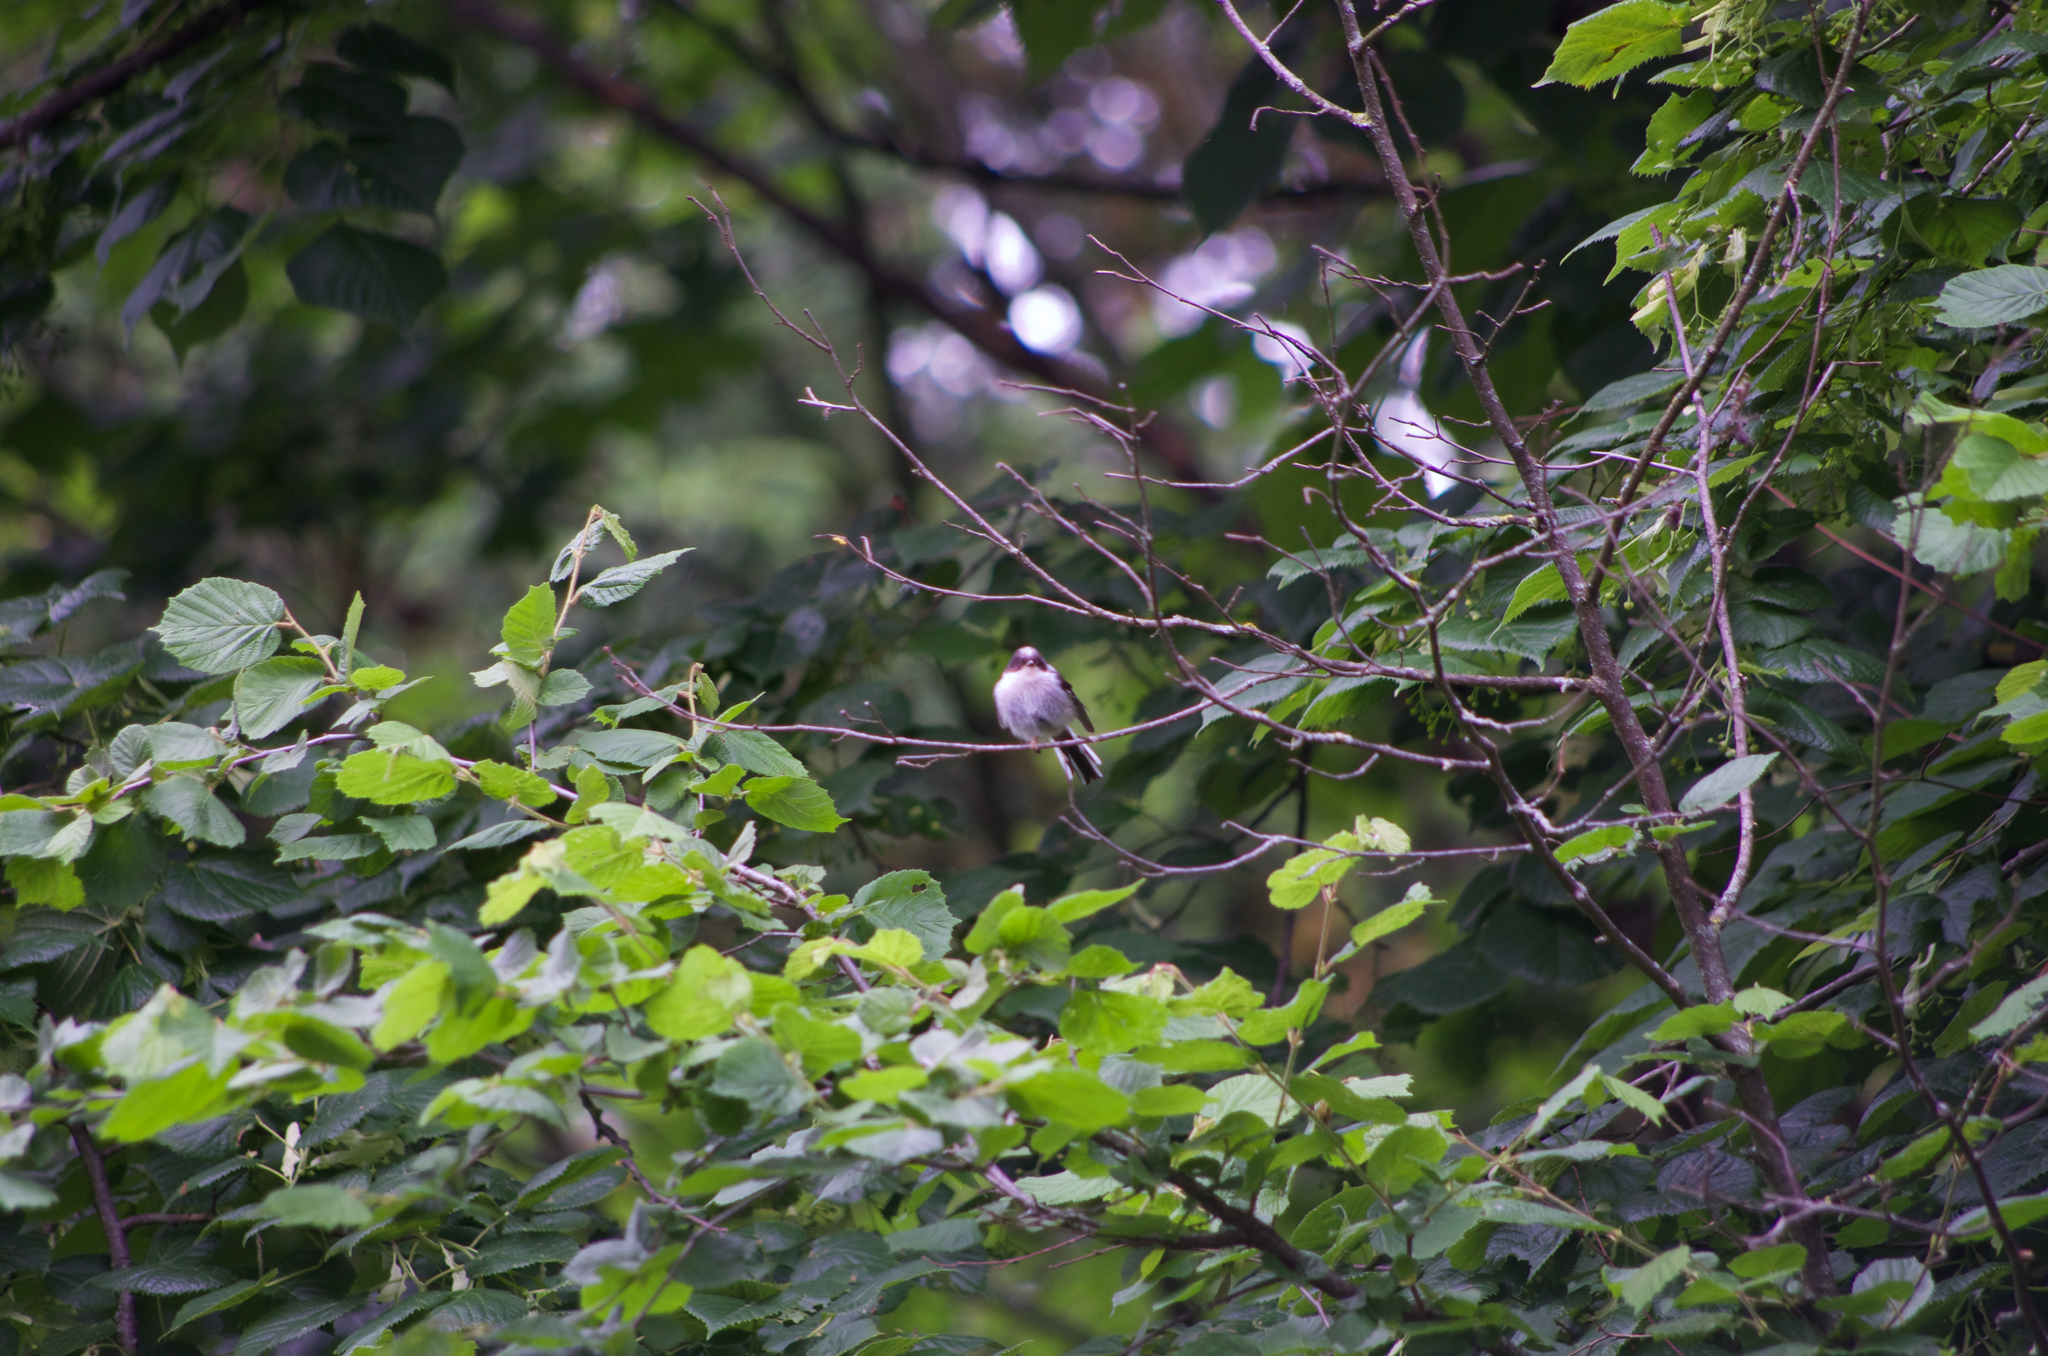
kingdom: Animalia
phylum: Chordata
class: Aves
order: Passeriformes
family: Aegithalidae
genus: Aegithalos
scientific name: Aegithalos caudatus
